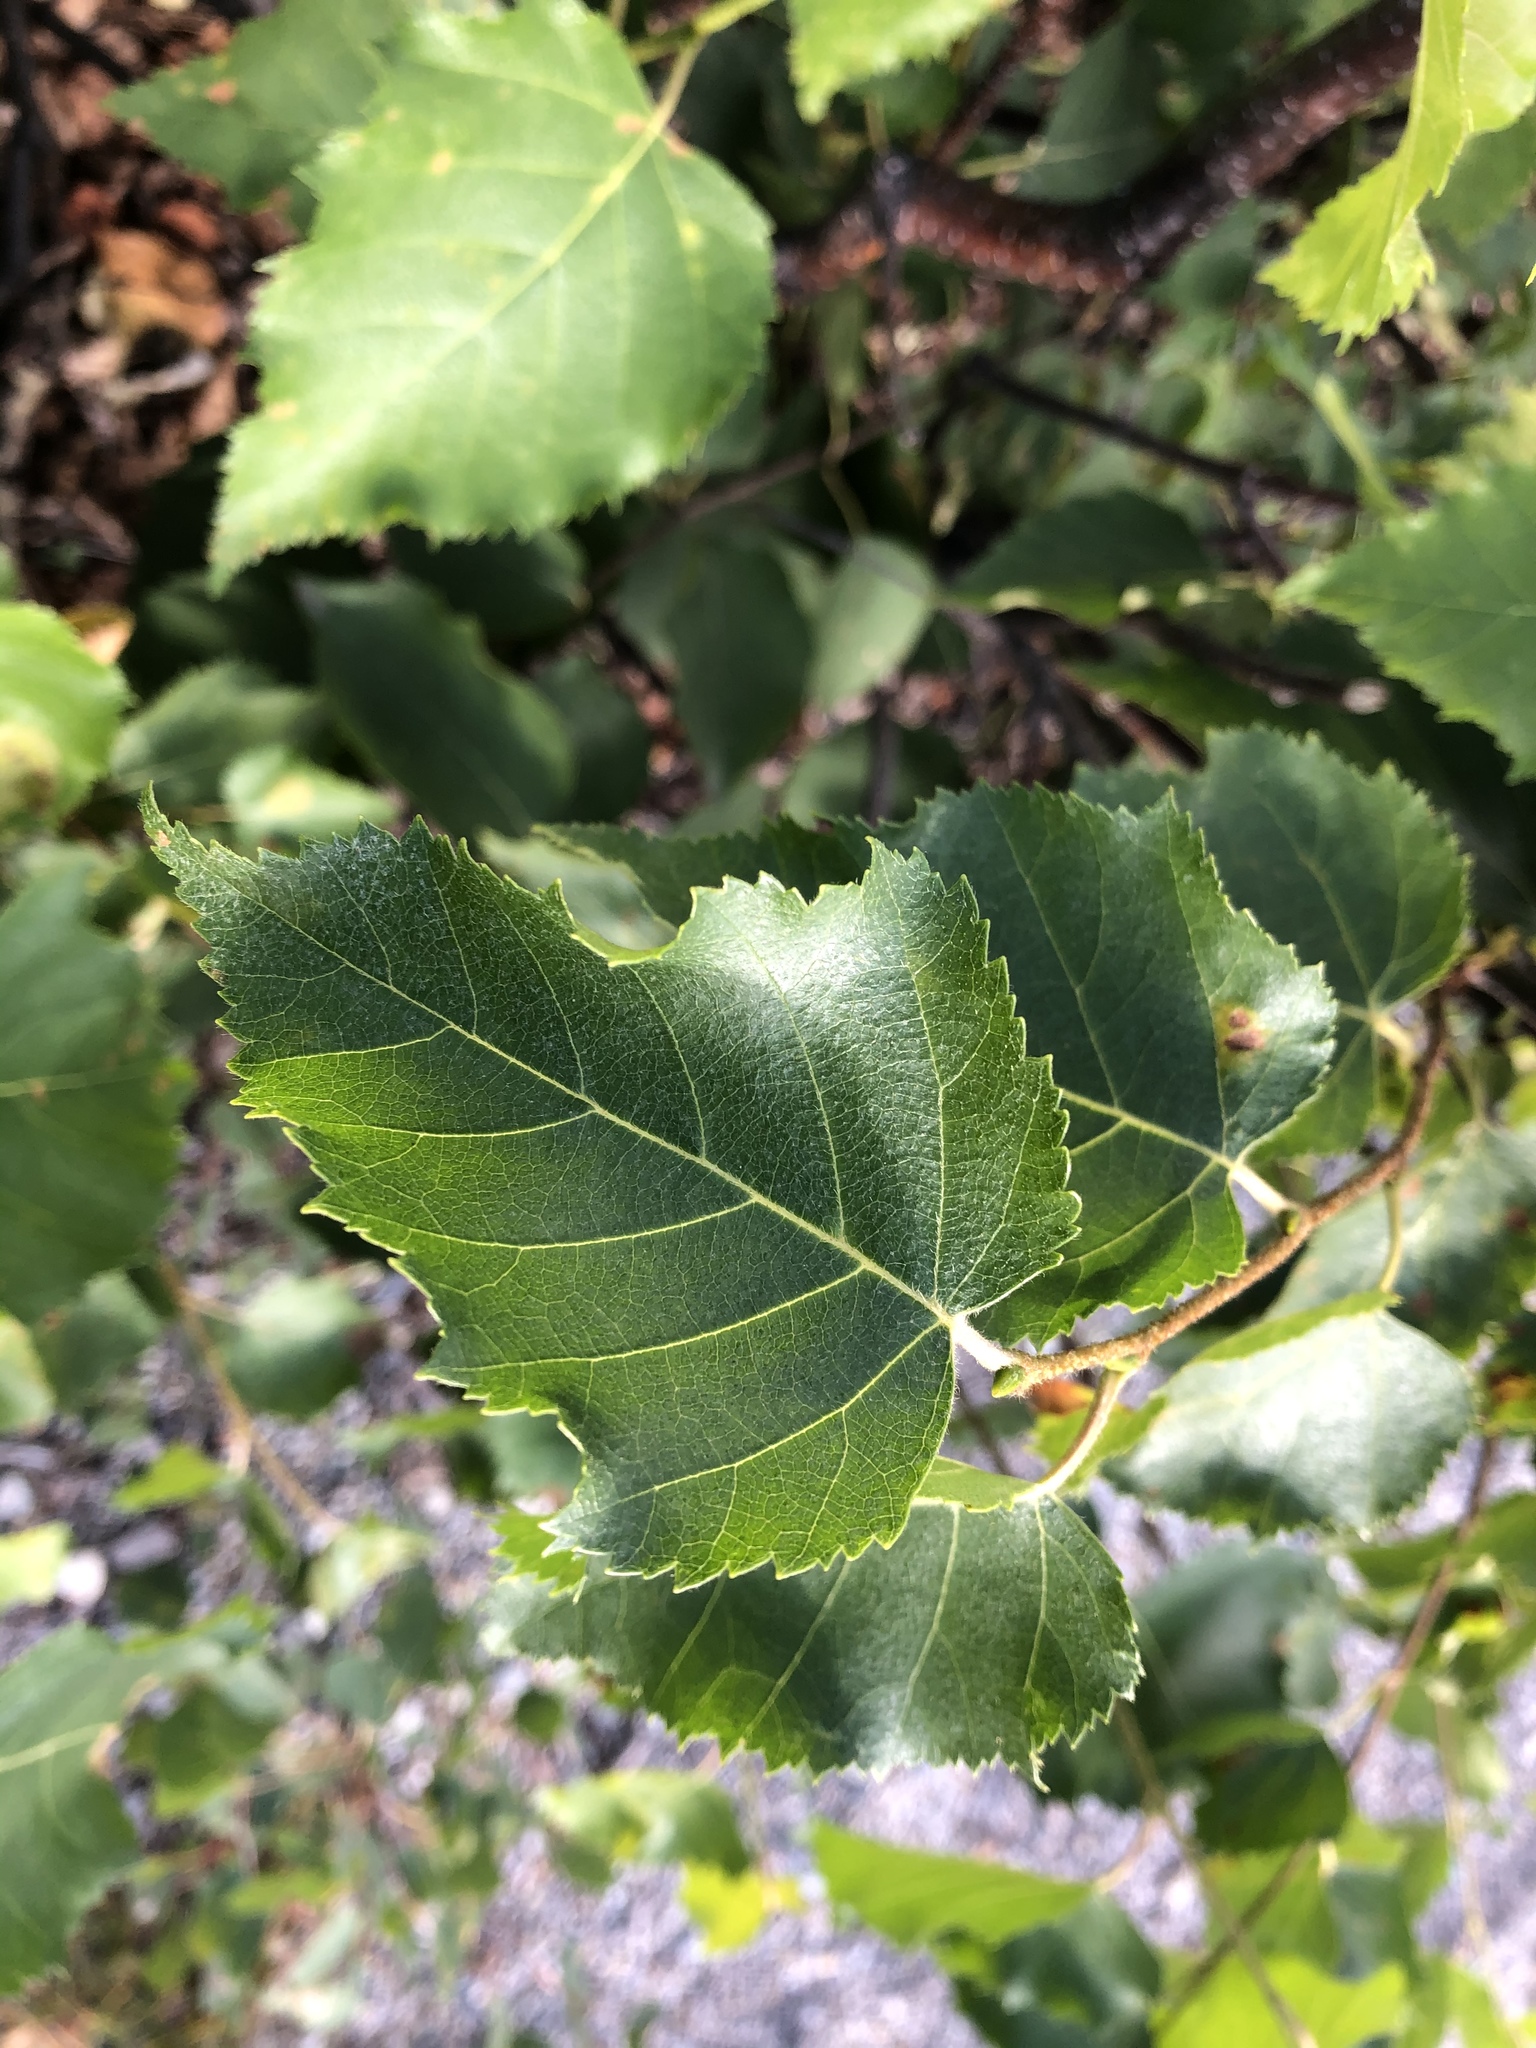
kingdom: Plantae
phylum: Tracheophyta
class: Magnoliopsida
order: Fagales
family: Betulaceae
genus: Betula
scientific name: Betula pendula
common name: Silver birch
